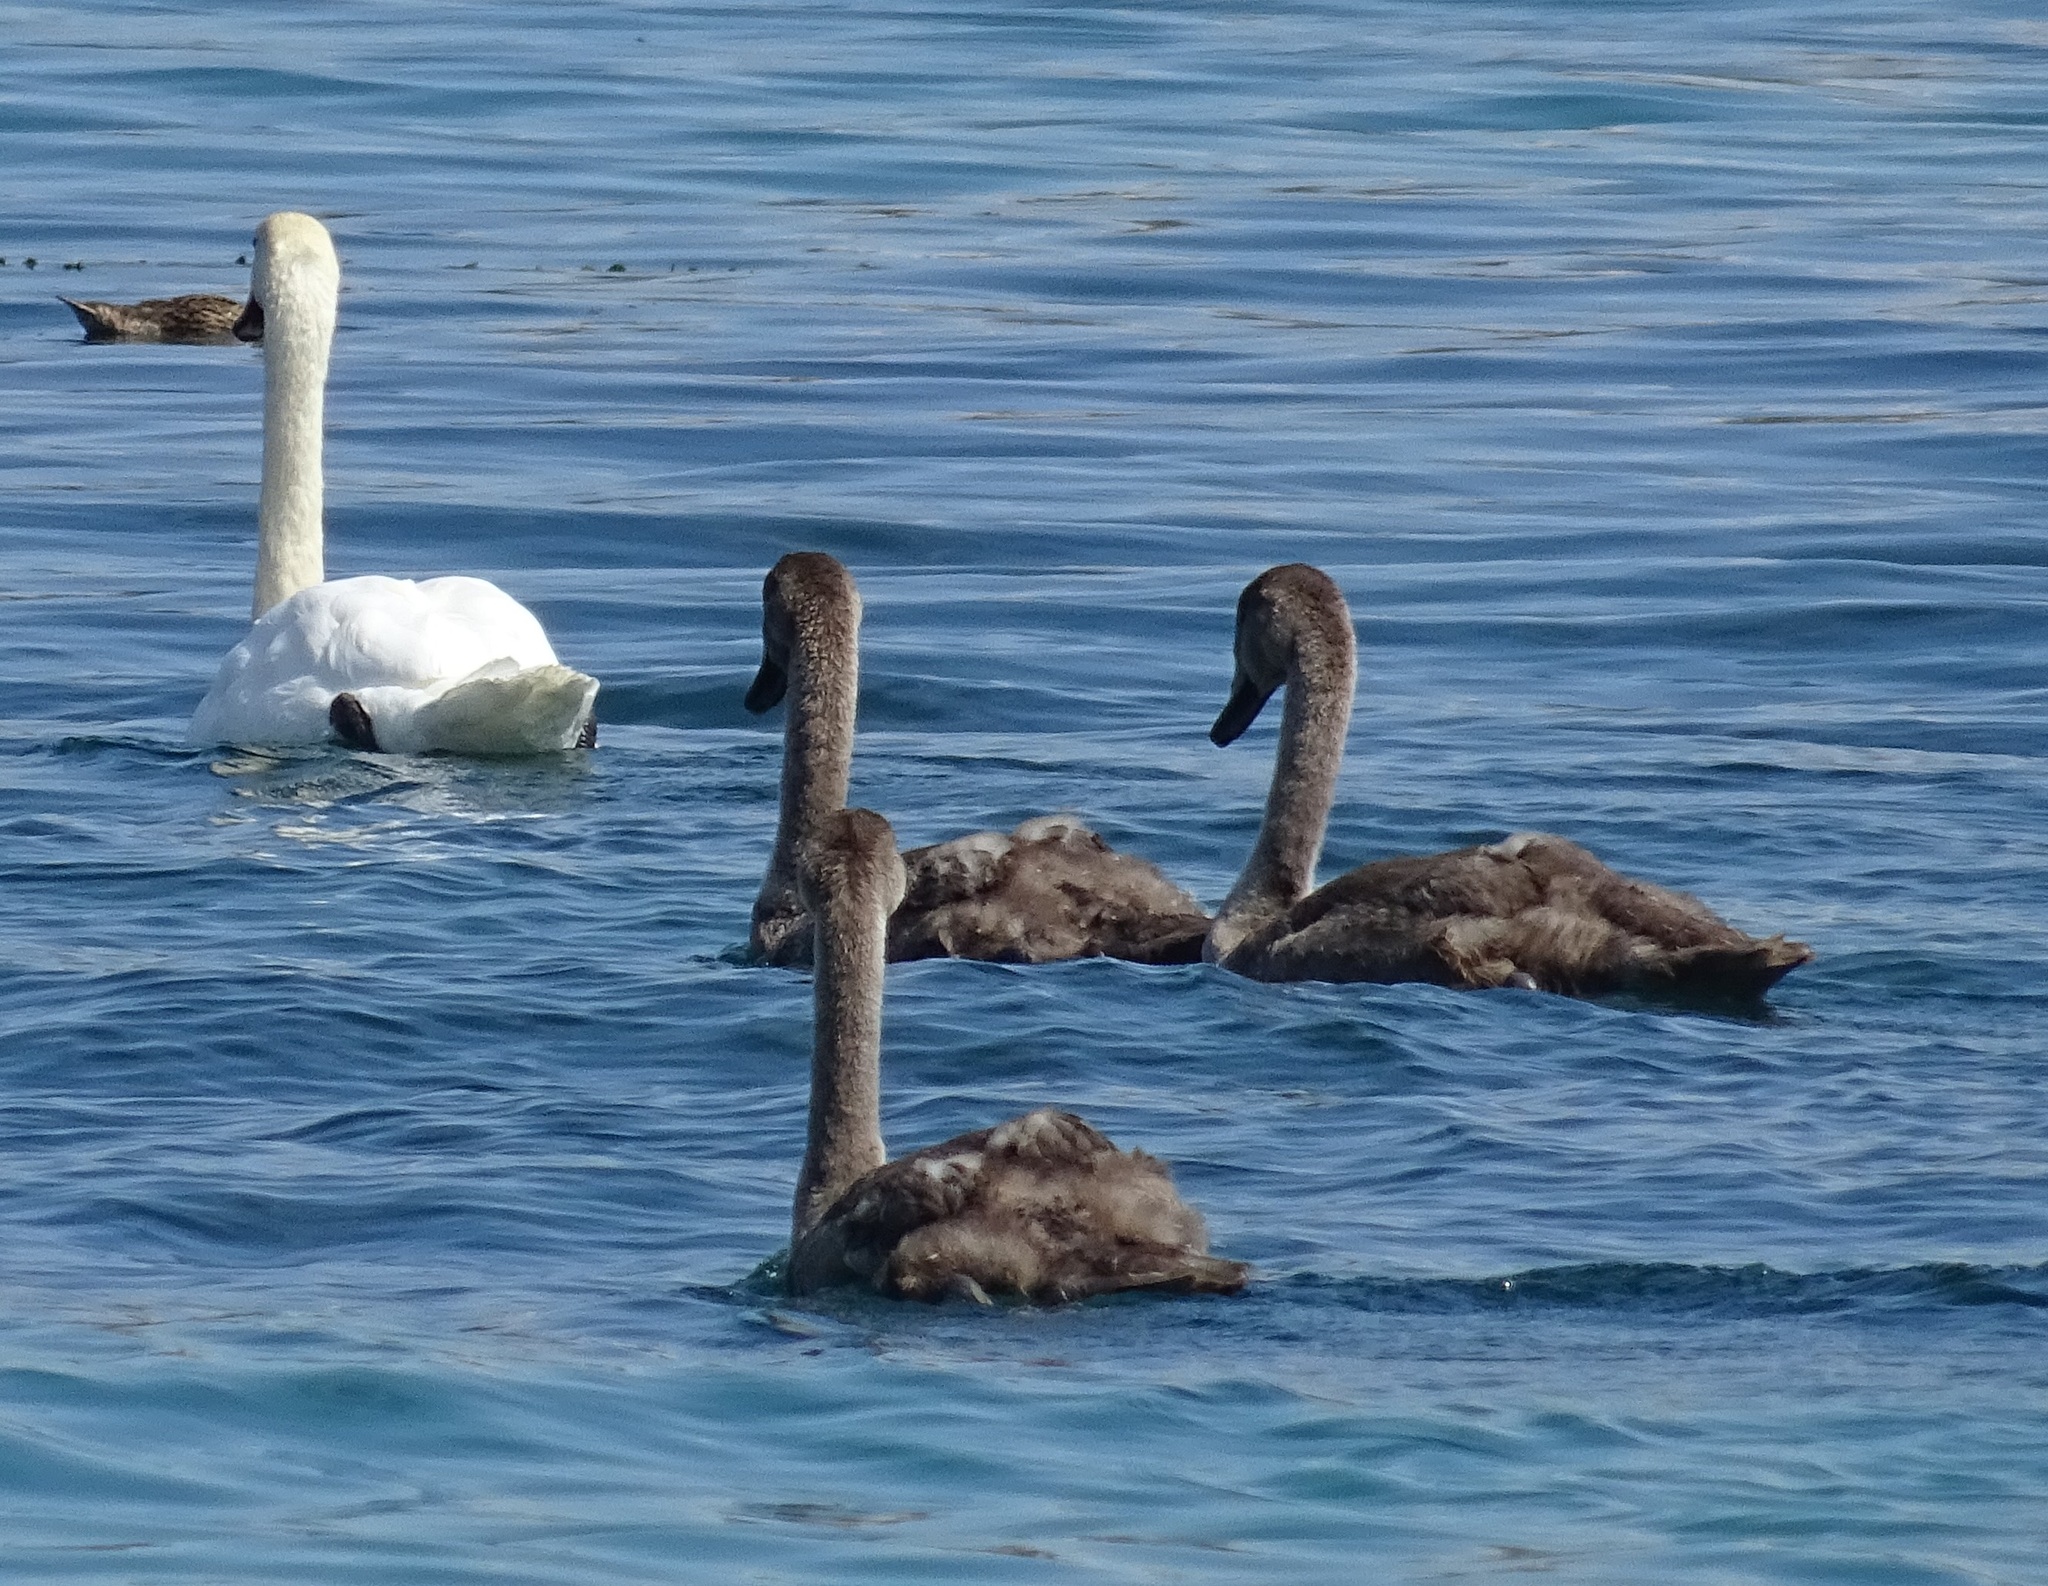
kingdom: Animalia
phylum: Chordata
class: Aves
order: Anseriformes
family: Anatidae
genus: Cygnus
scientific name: Cygnus olor
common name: Mute swan
